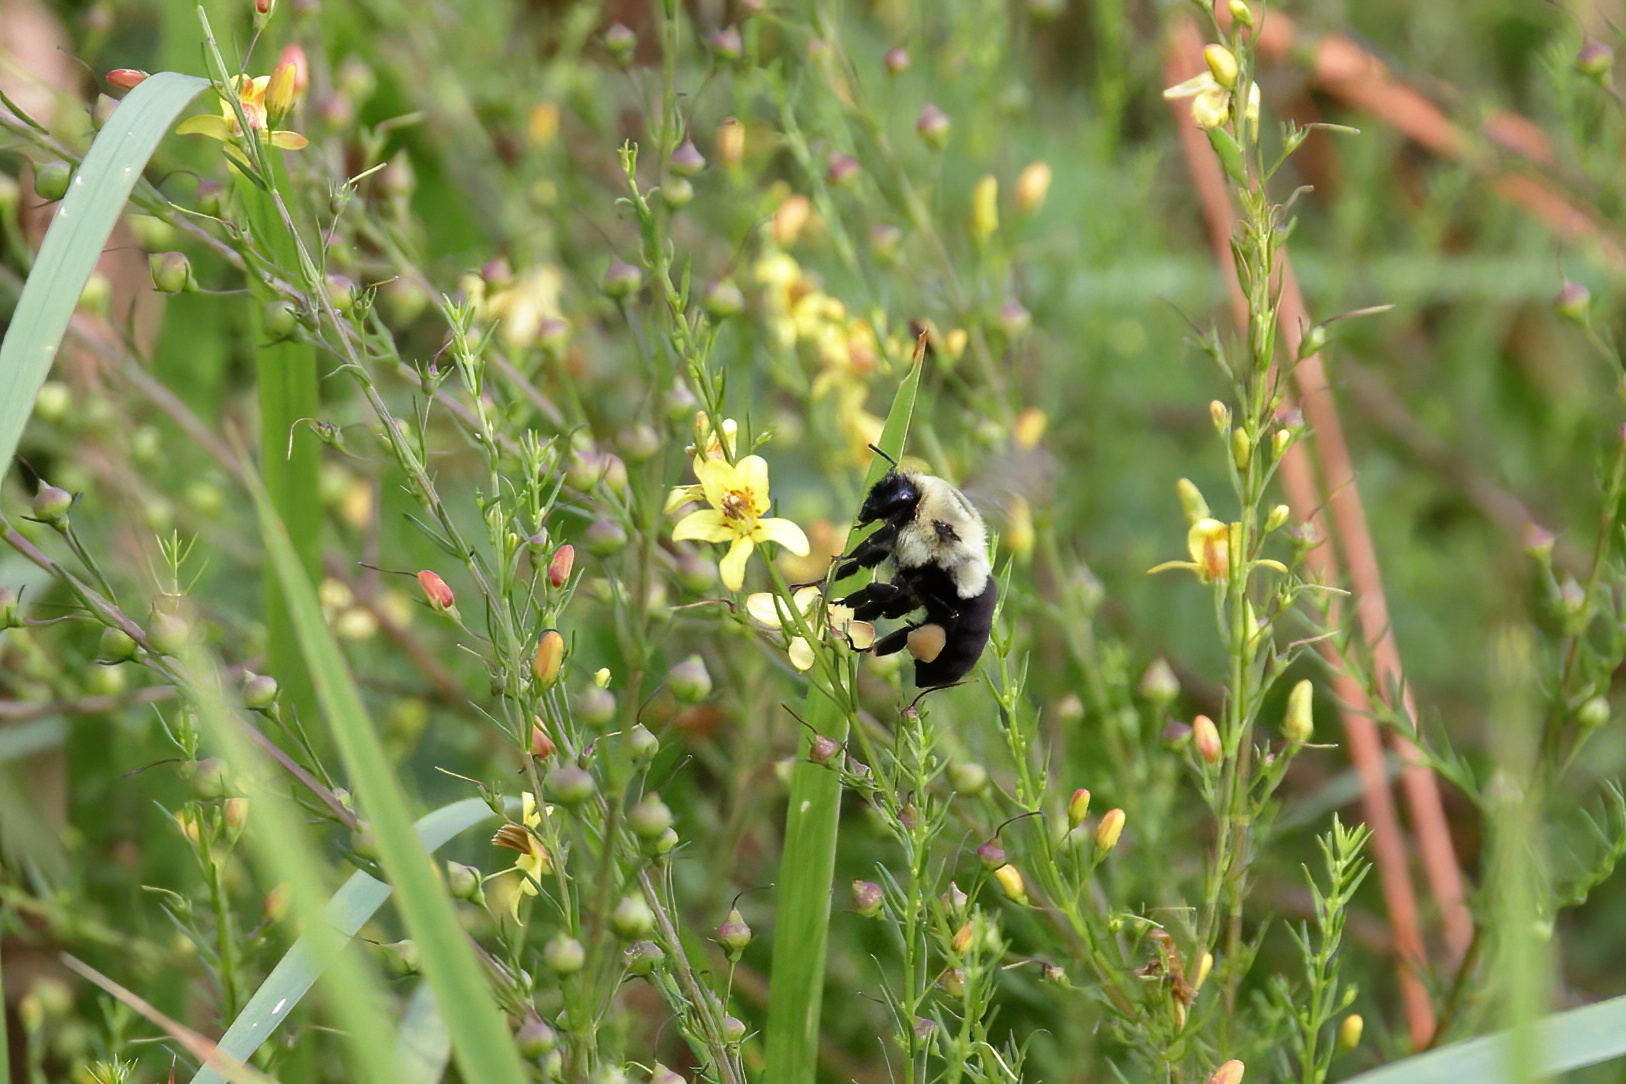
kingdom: Animalia
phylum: Arthropoda
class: Insecta
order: Hymenoptera
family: Apidae
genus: Bombus
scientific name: Bombus impatiens
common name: Common eastern bumble bee
